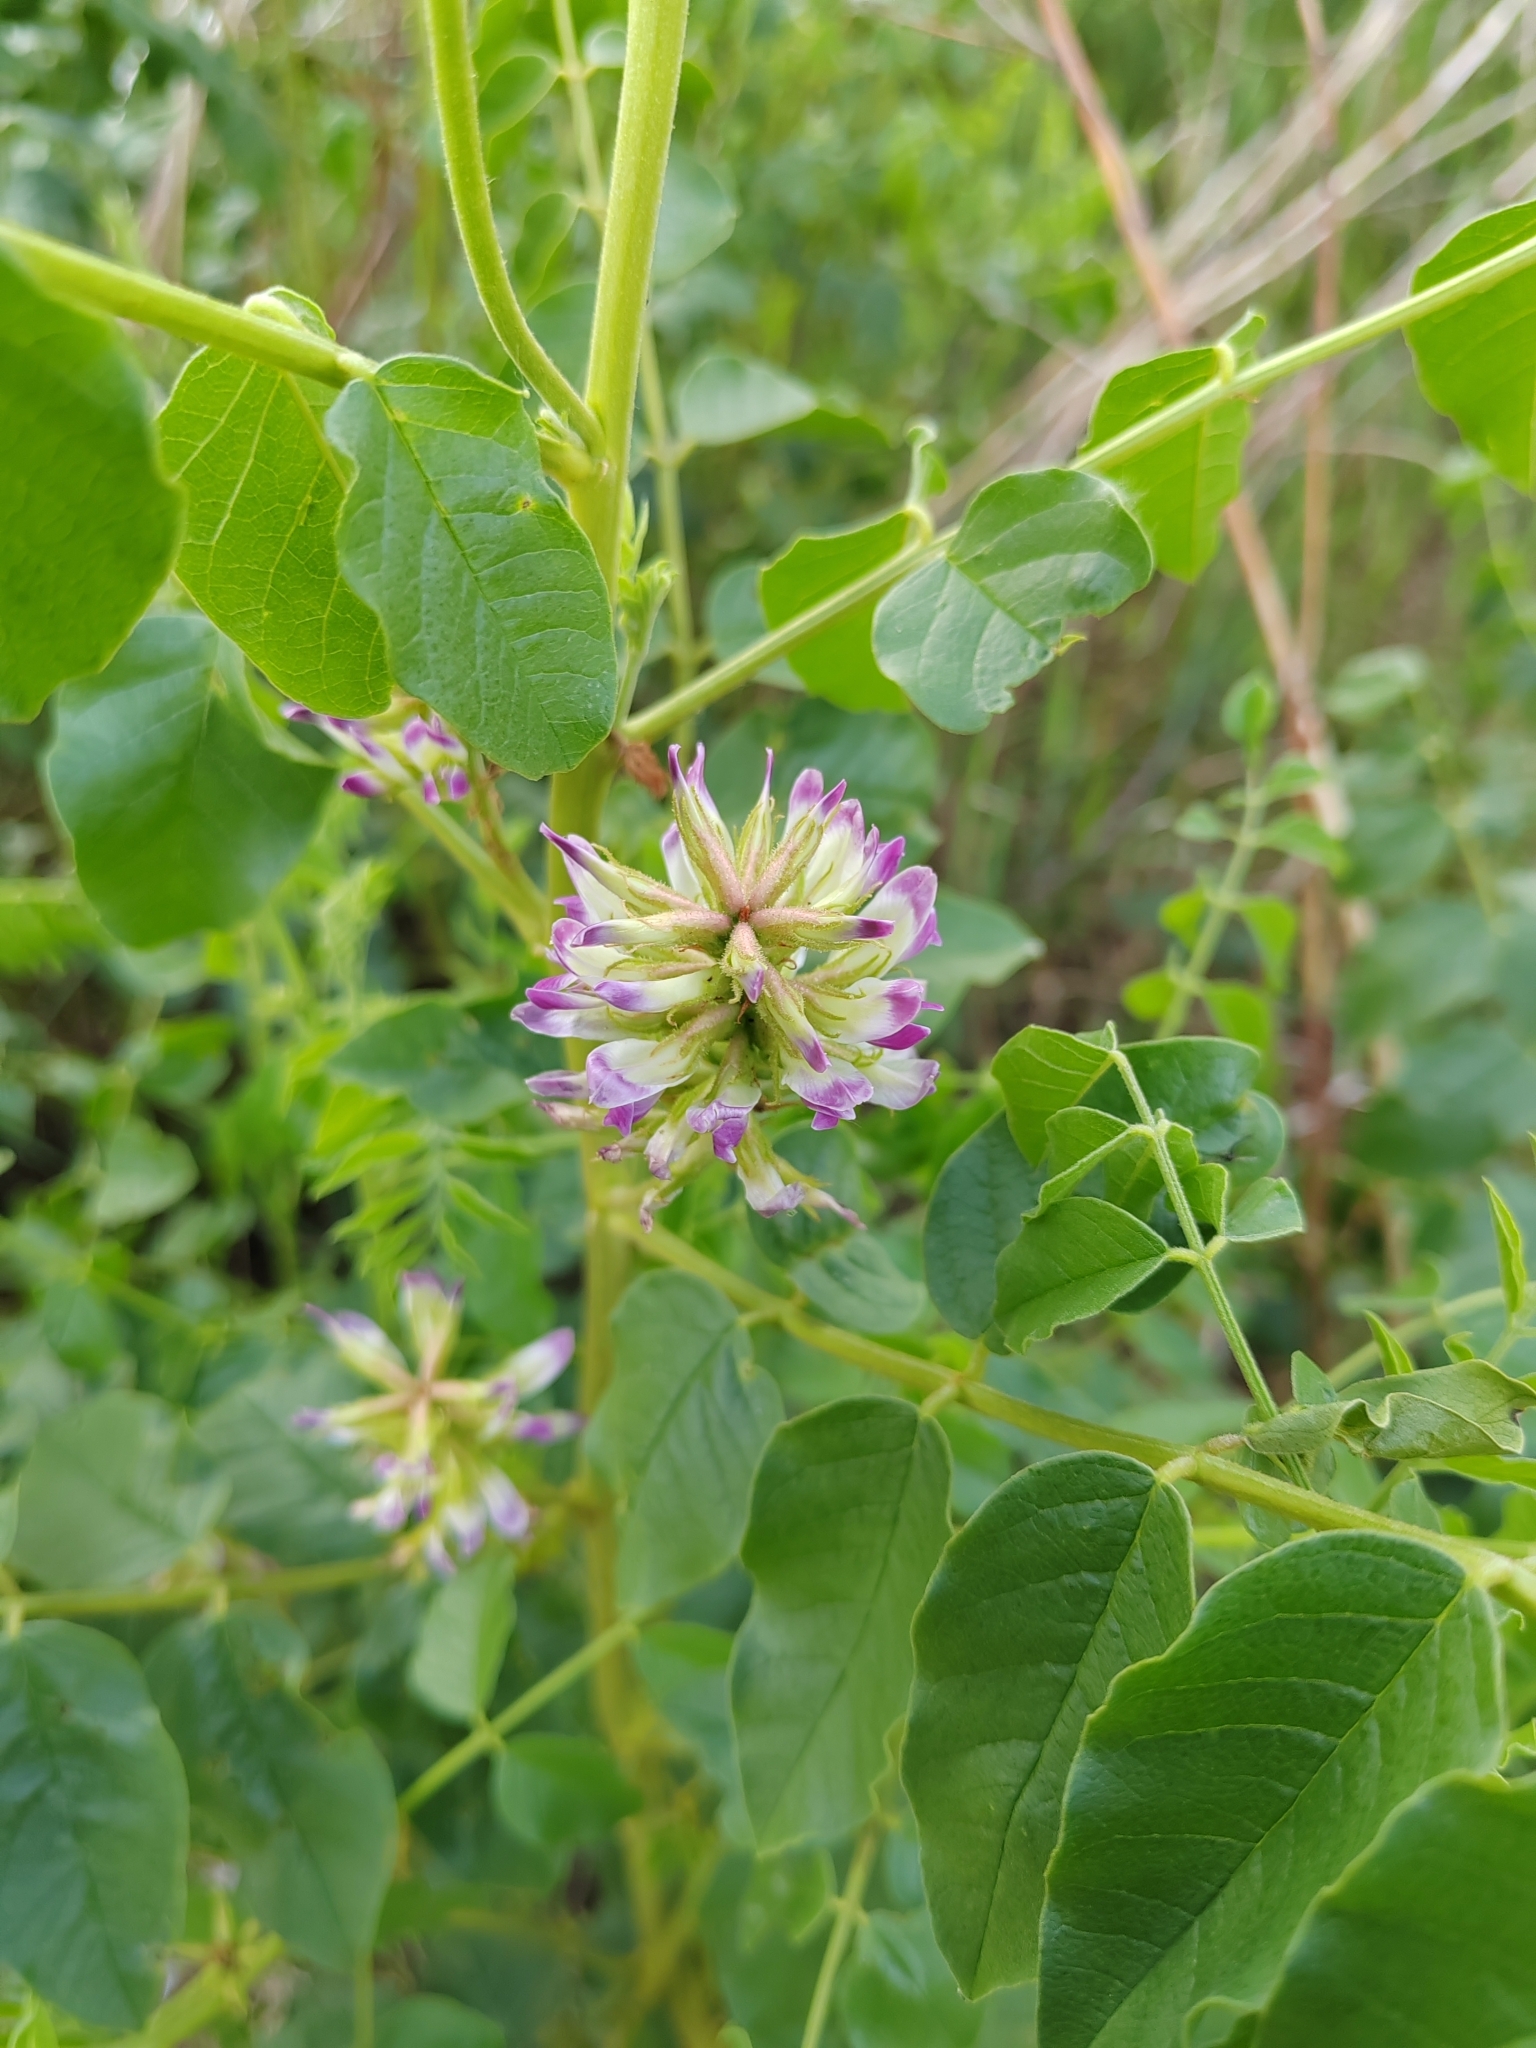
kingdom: Plantae
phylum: Tracheophyta
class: Magnoliopsida
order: Fabales
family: Fabaceae
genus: Glycyrrhiza
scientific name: Glycyrrhiza uralensis
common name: Chinese licorice
